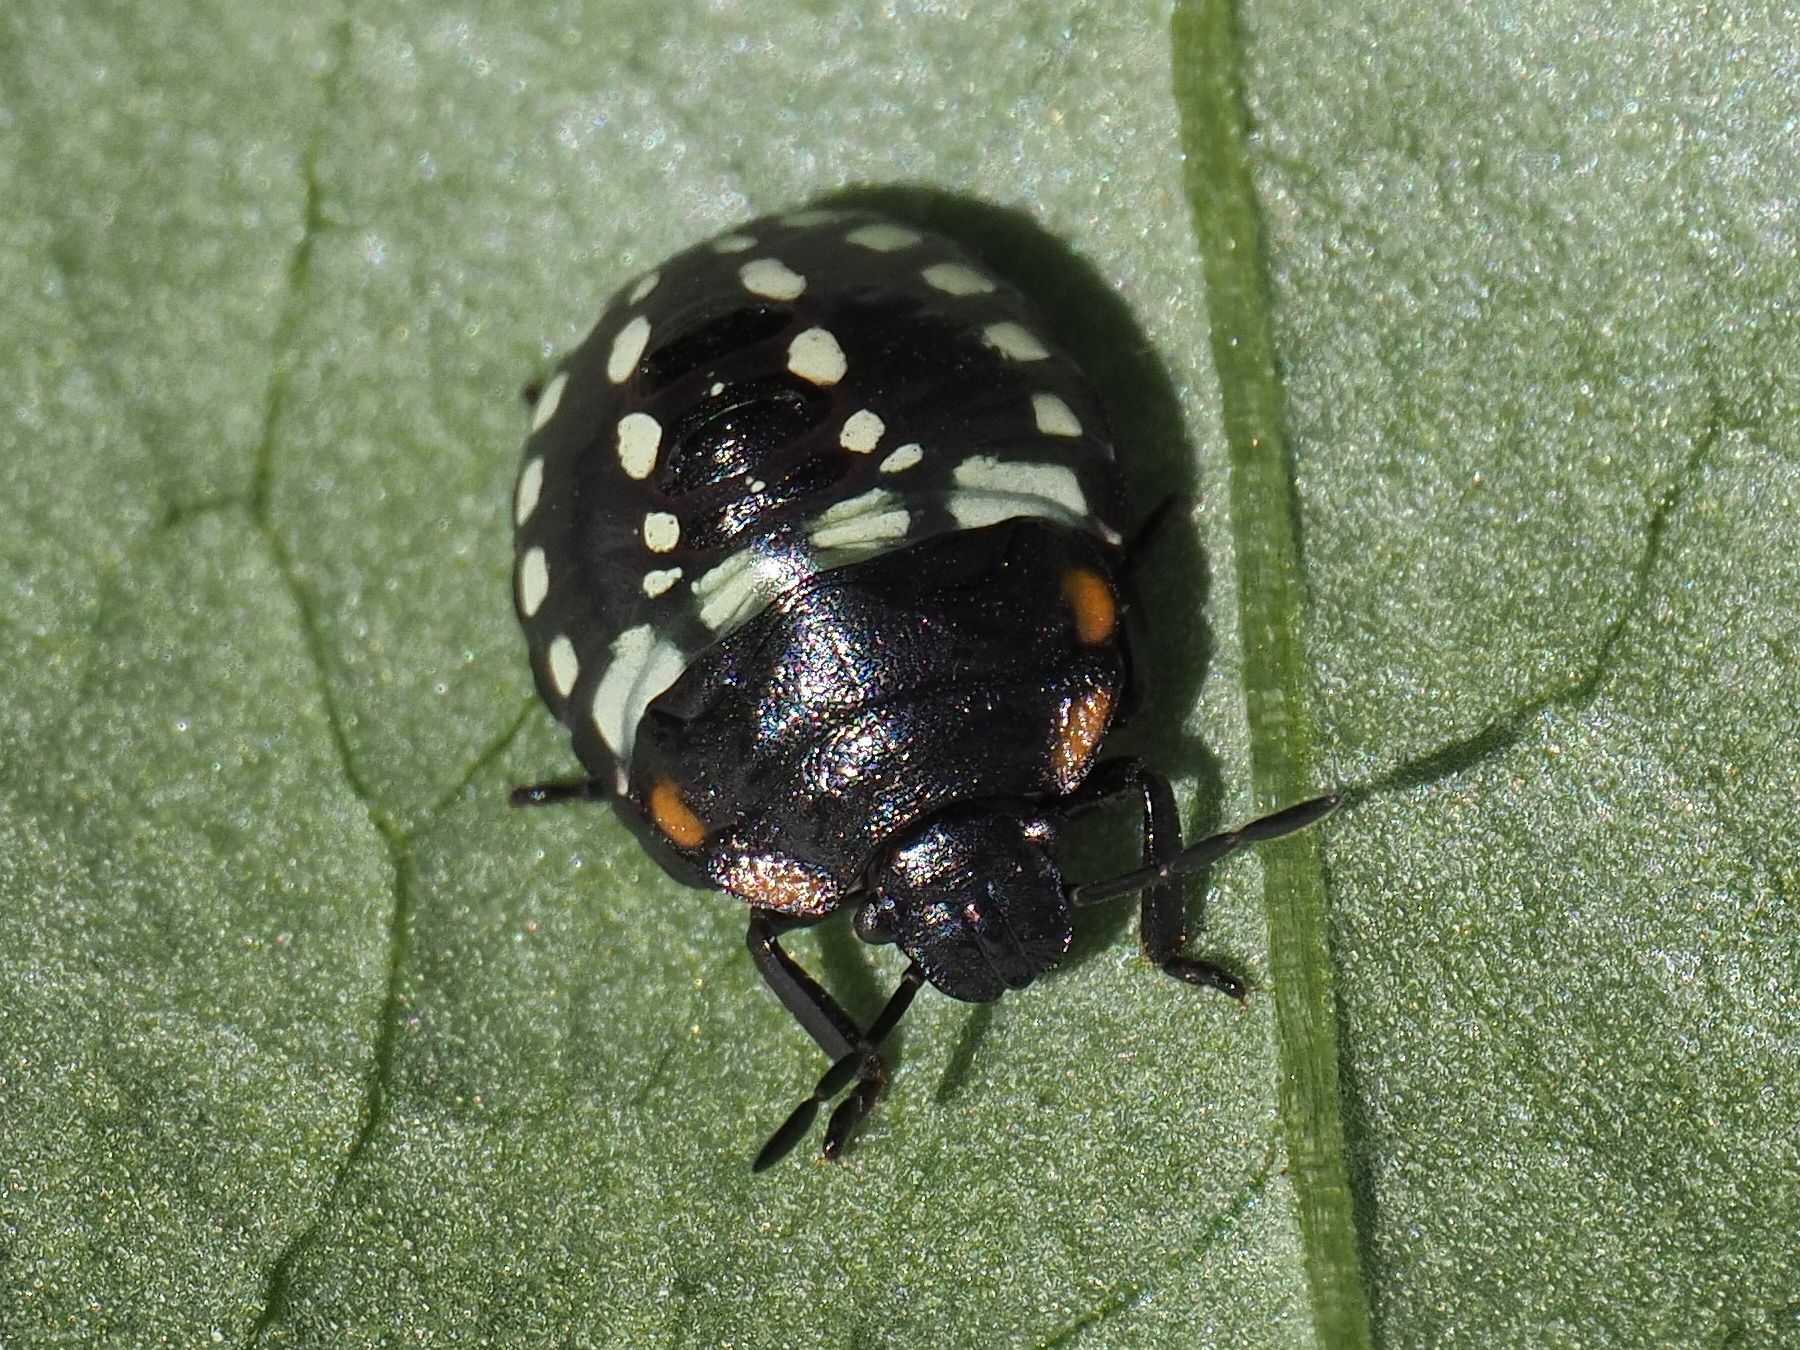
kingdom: Animalia
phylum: Arthropoda
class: Insecta
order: Hemiptera
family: Pentatomidae
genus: Nezara
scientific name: Nezara viridula
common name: Southern green stink bug
